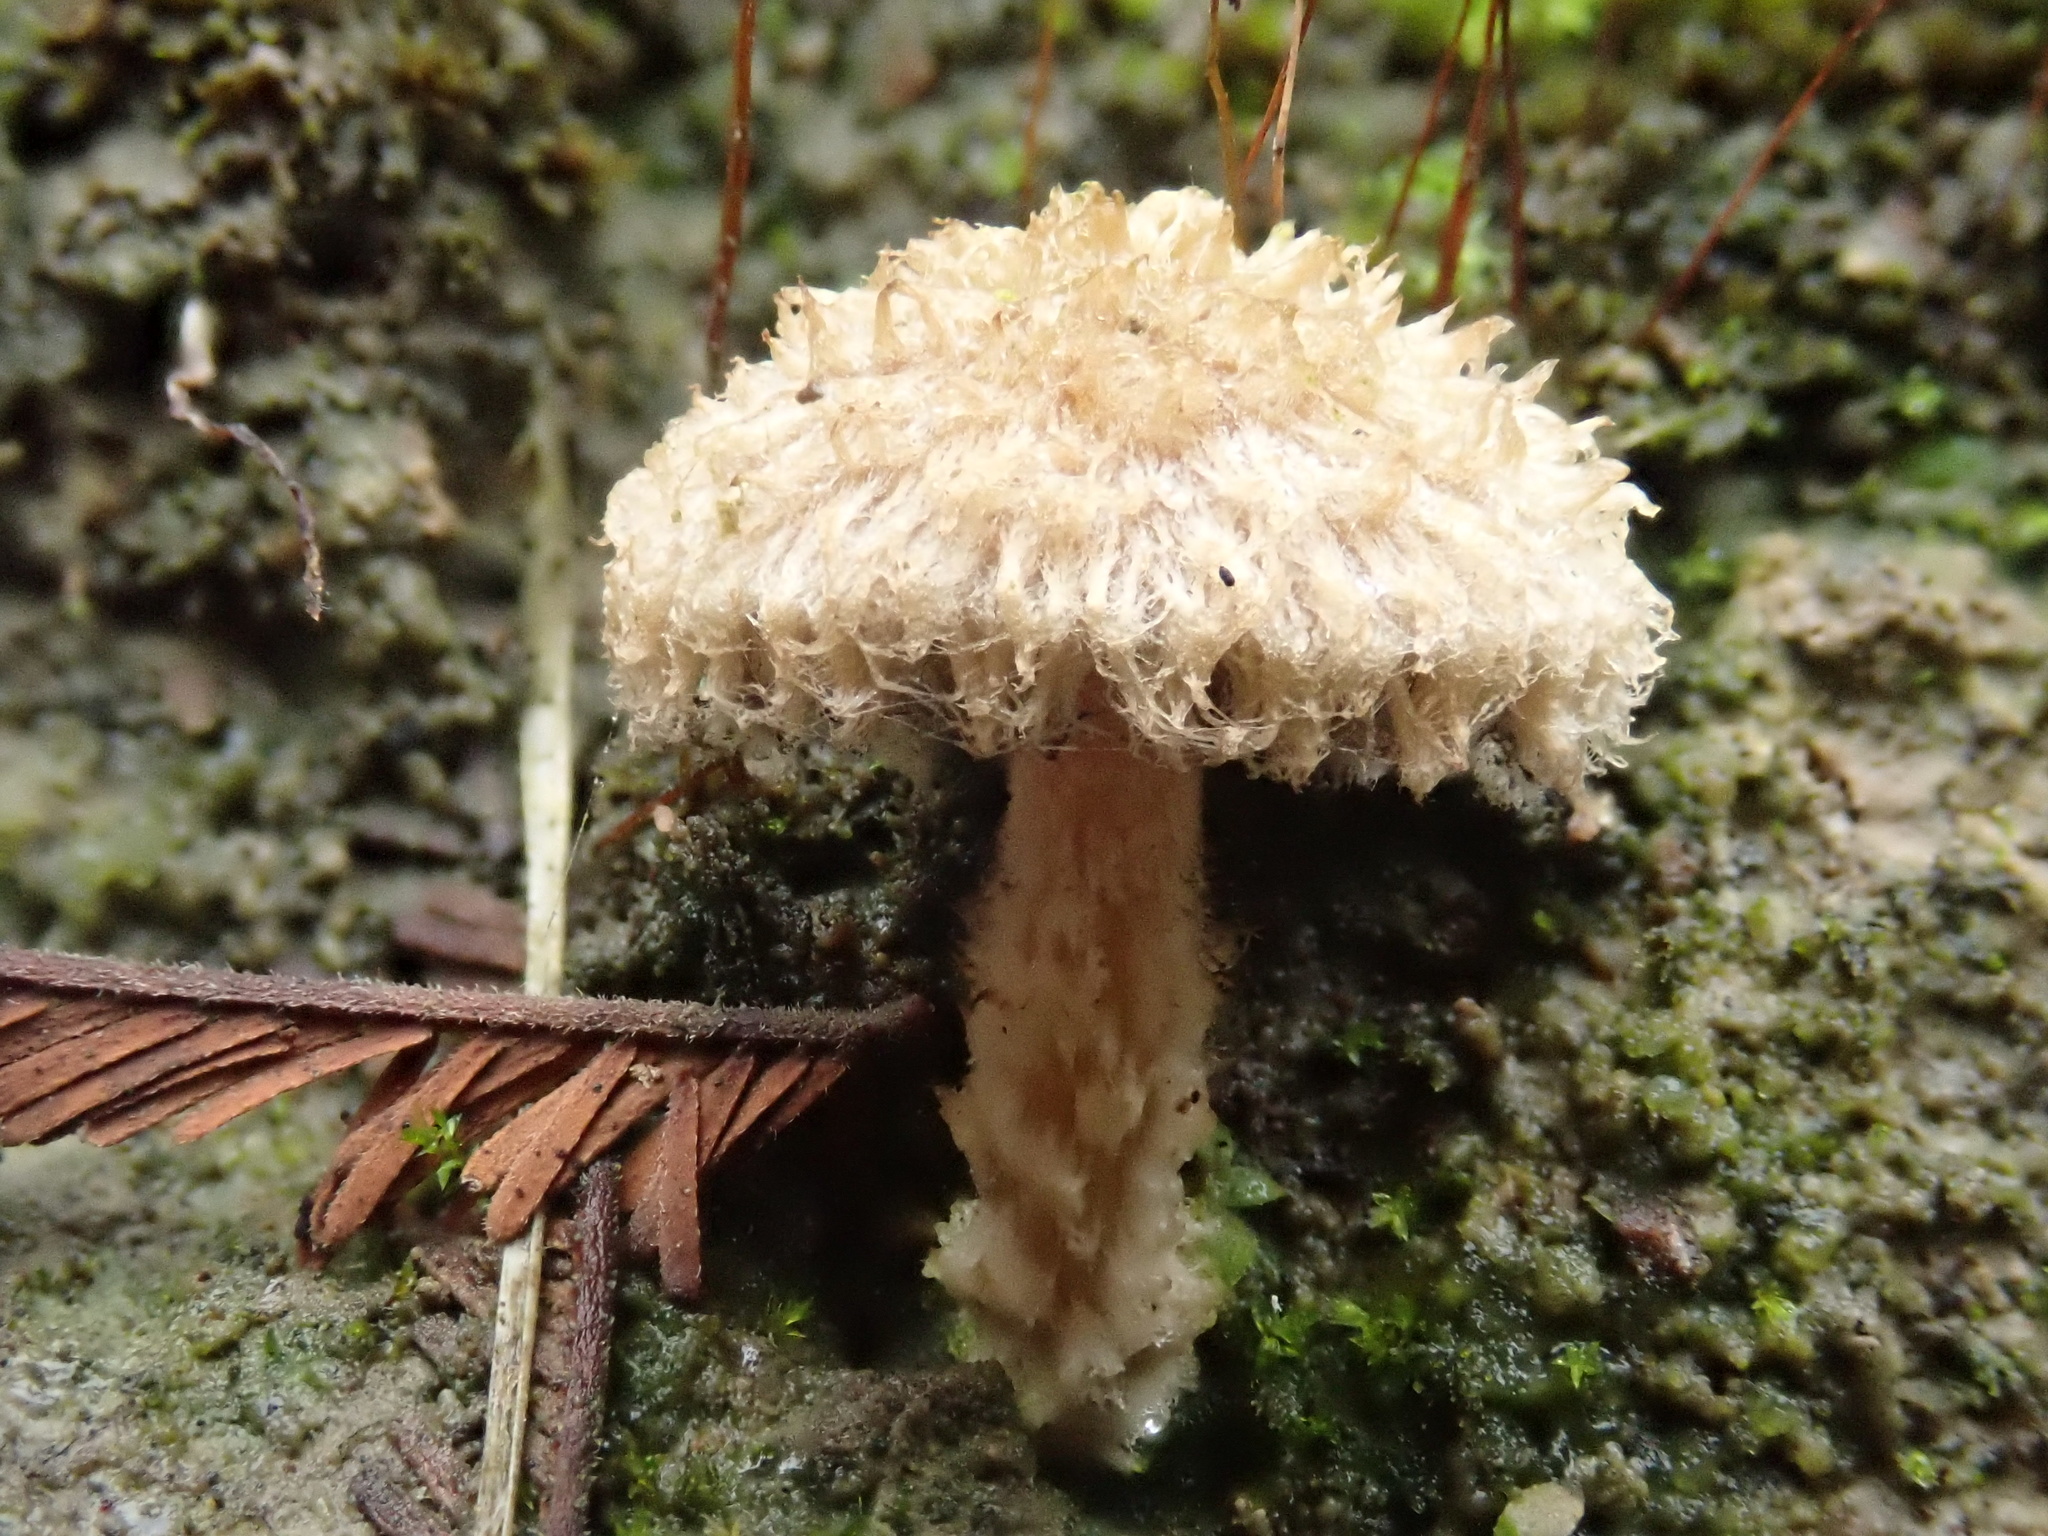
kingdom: Fungi
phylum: Basidiomycota
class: Agaricomycetes
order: Agaricales
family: Psathyrellaceae
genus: Psathyrella
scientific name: Psathyrella asperospora
